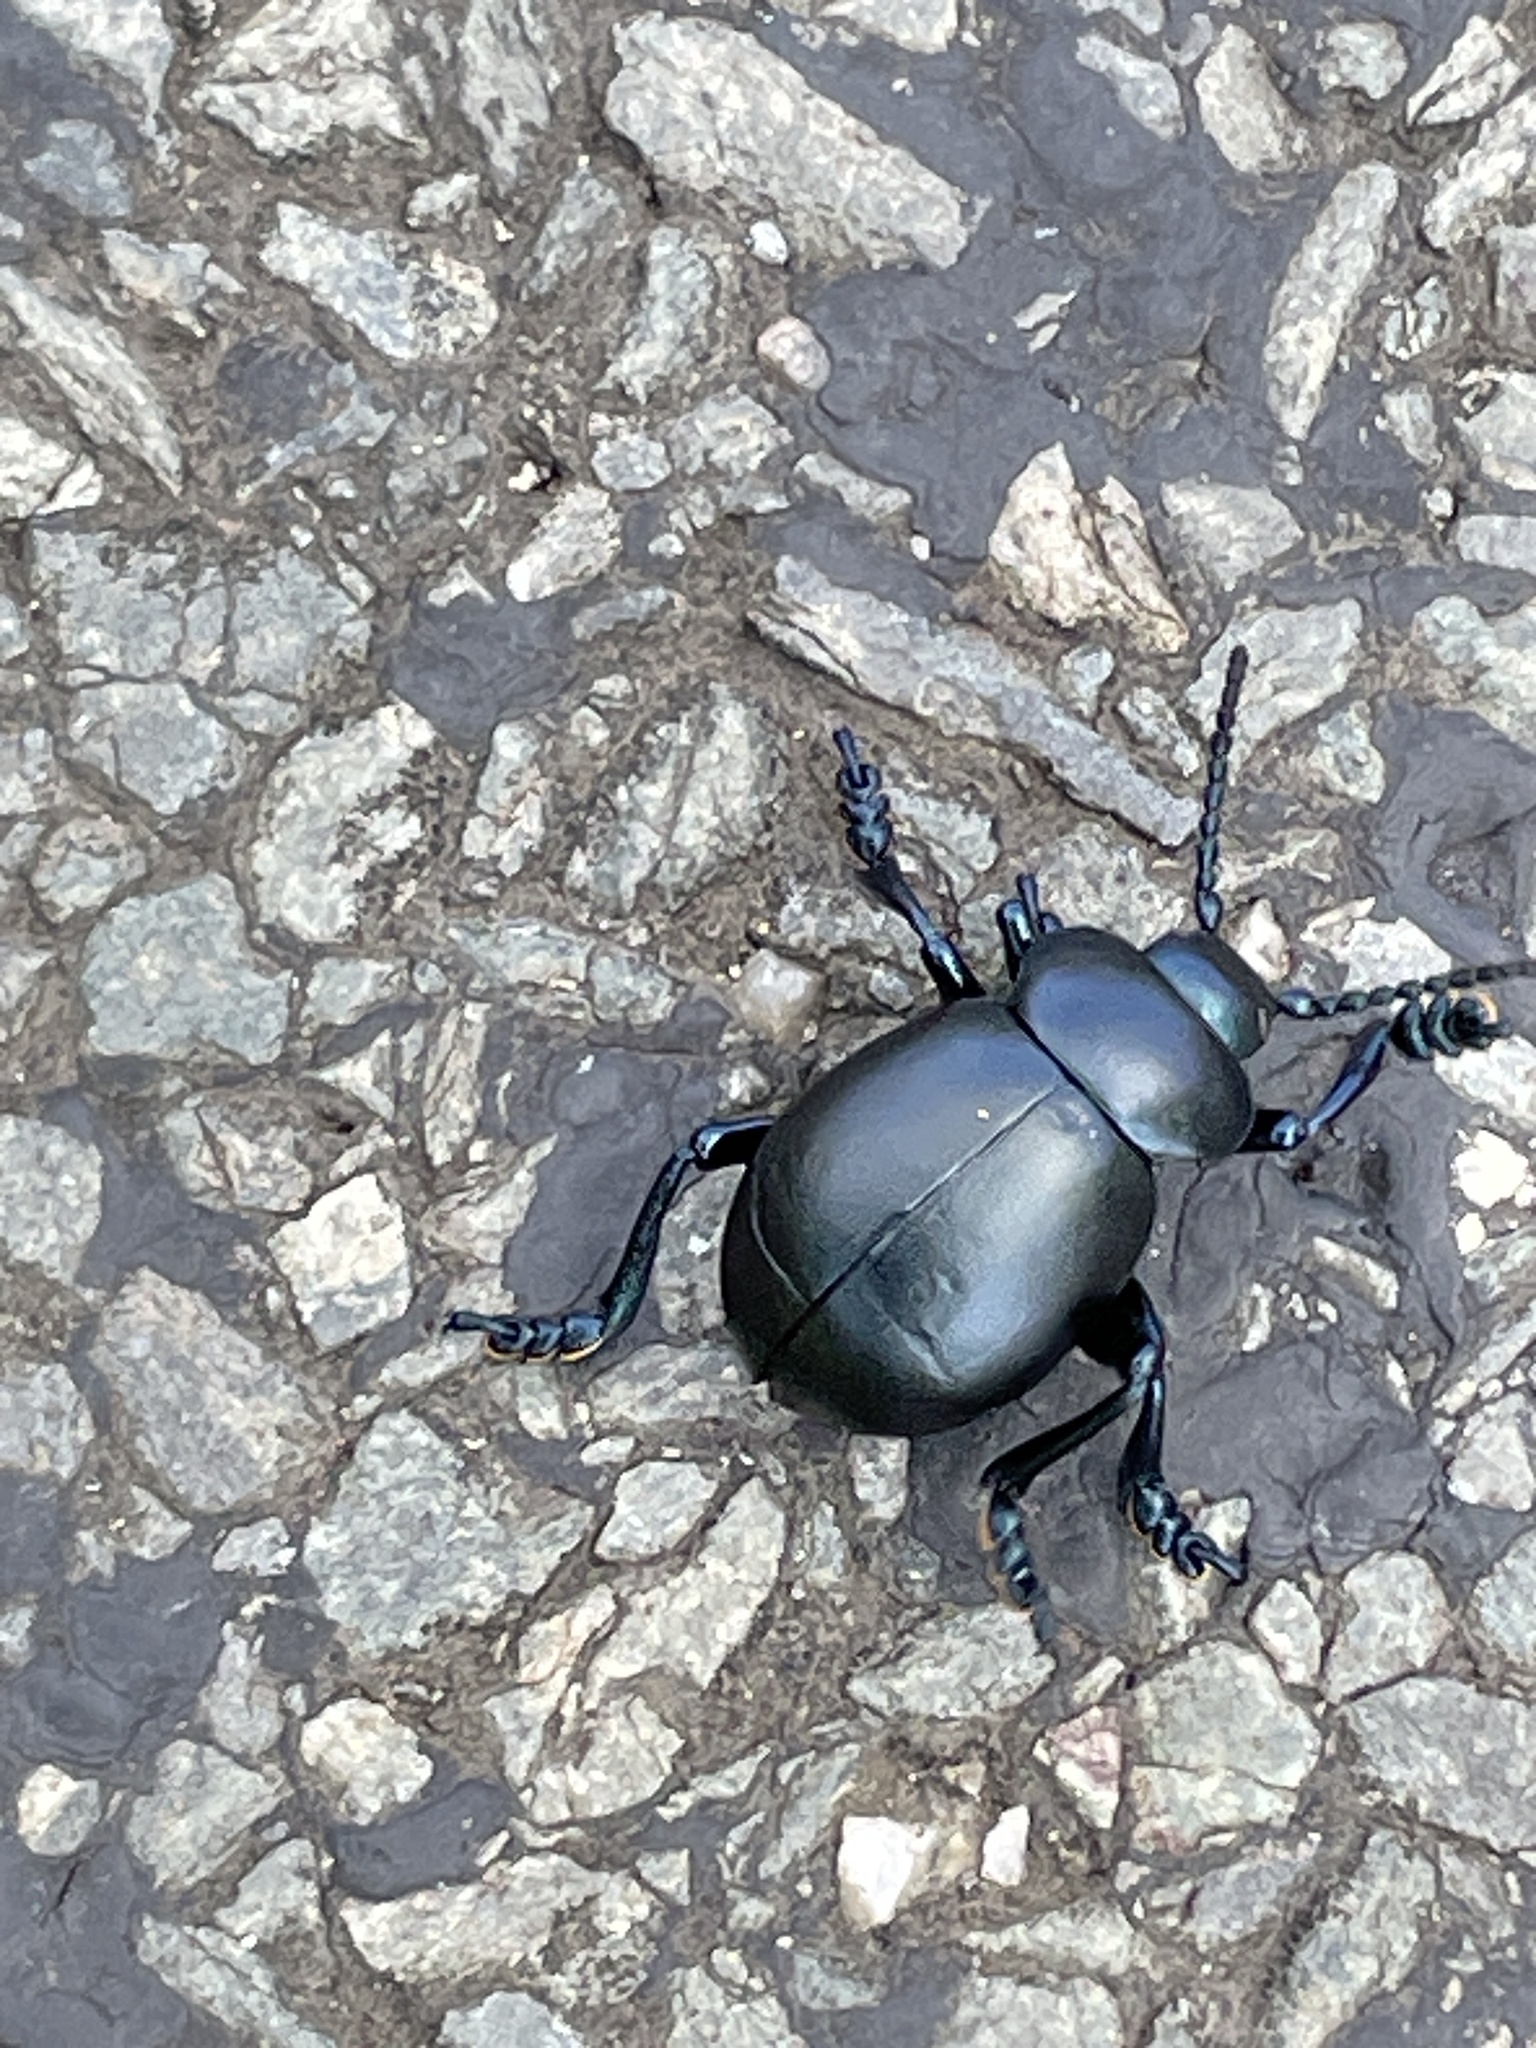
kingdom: Animalia
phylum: Arthropoda
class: Insecta
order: Coleoptera
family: Chrysomelidae
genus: Timarcha
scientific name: Timarcha tenebricosa
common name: Bloody-nosed beetle
